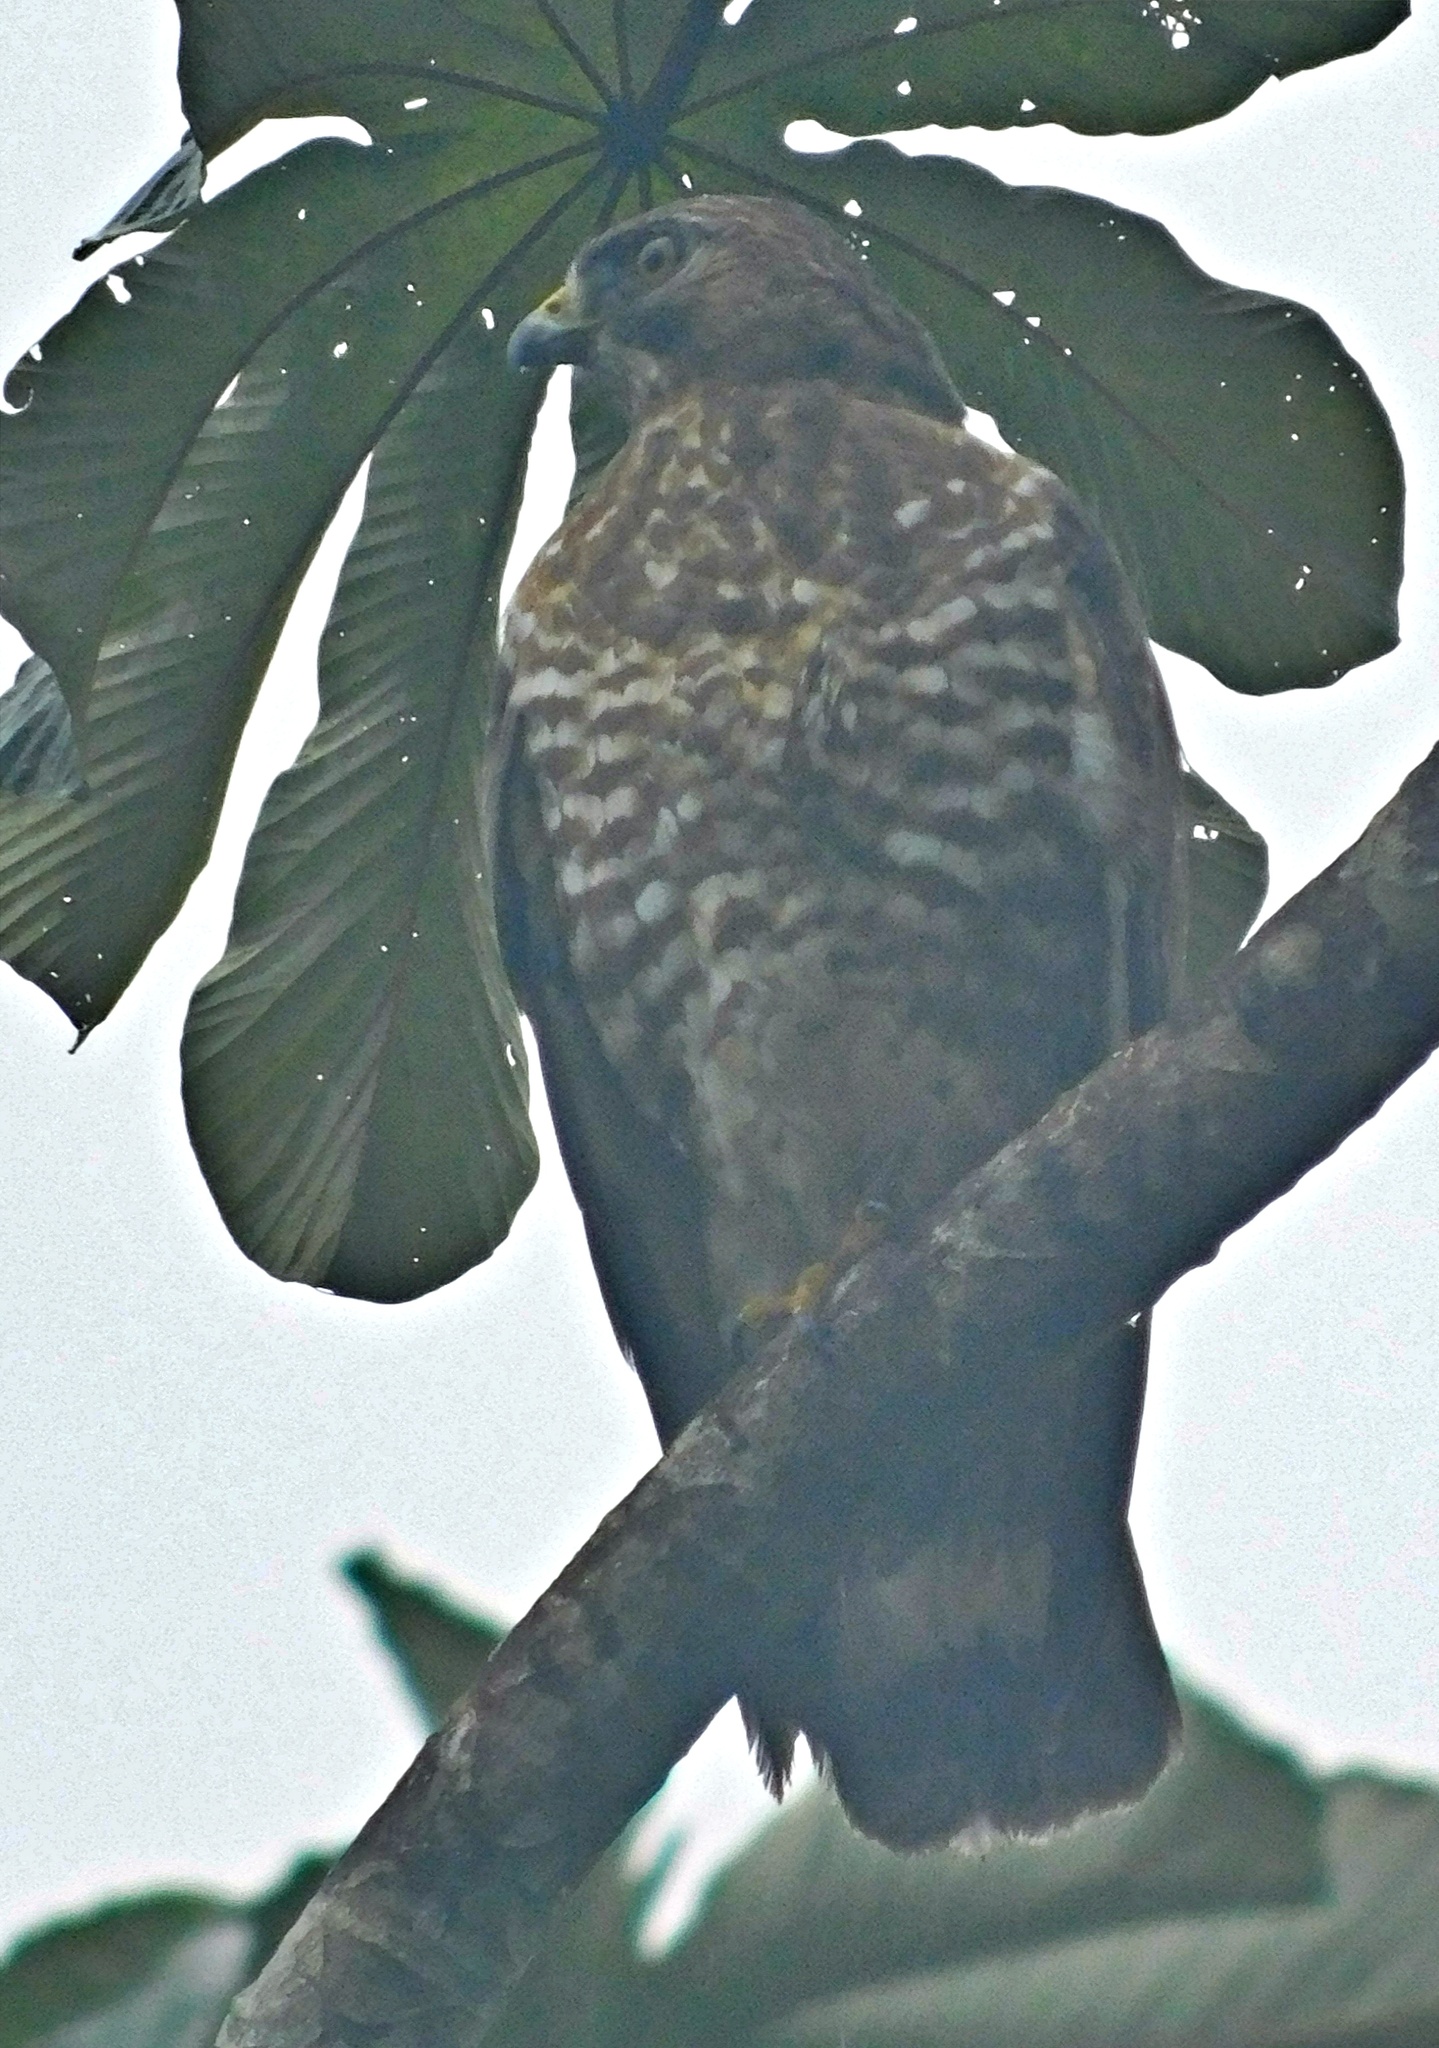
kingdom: Animalia
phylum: Chordata
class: Aves
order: Accipitriformes
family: Accipitridae
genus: Buteo
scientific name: Buteo platypterus
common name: Broad-winged hawk
